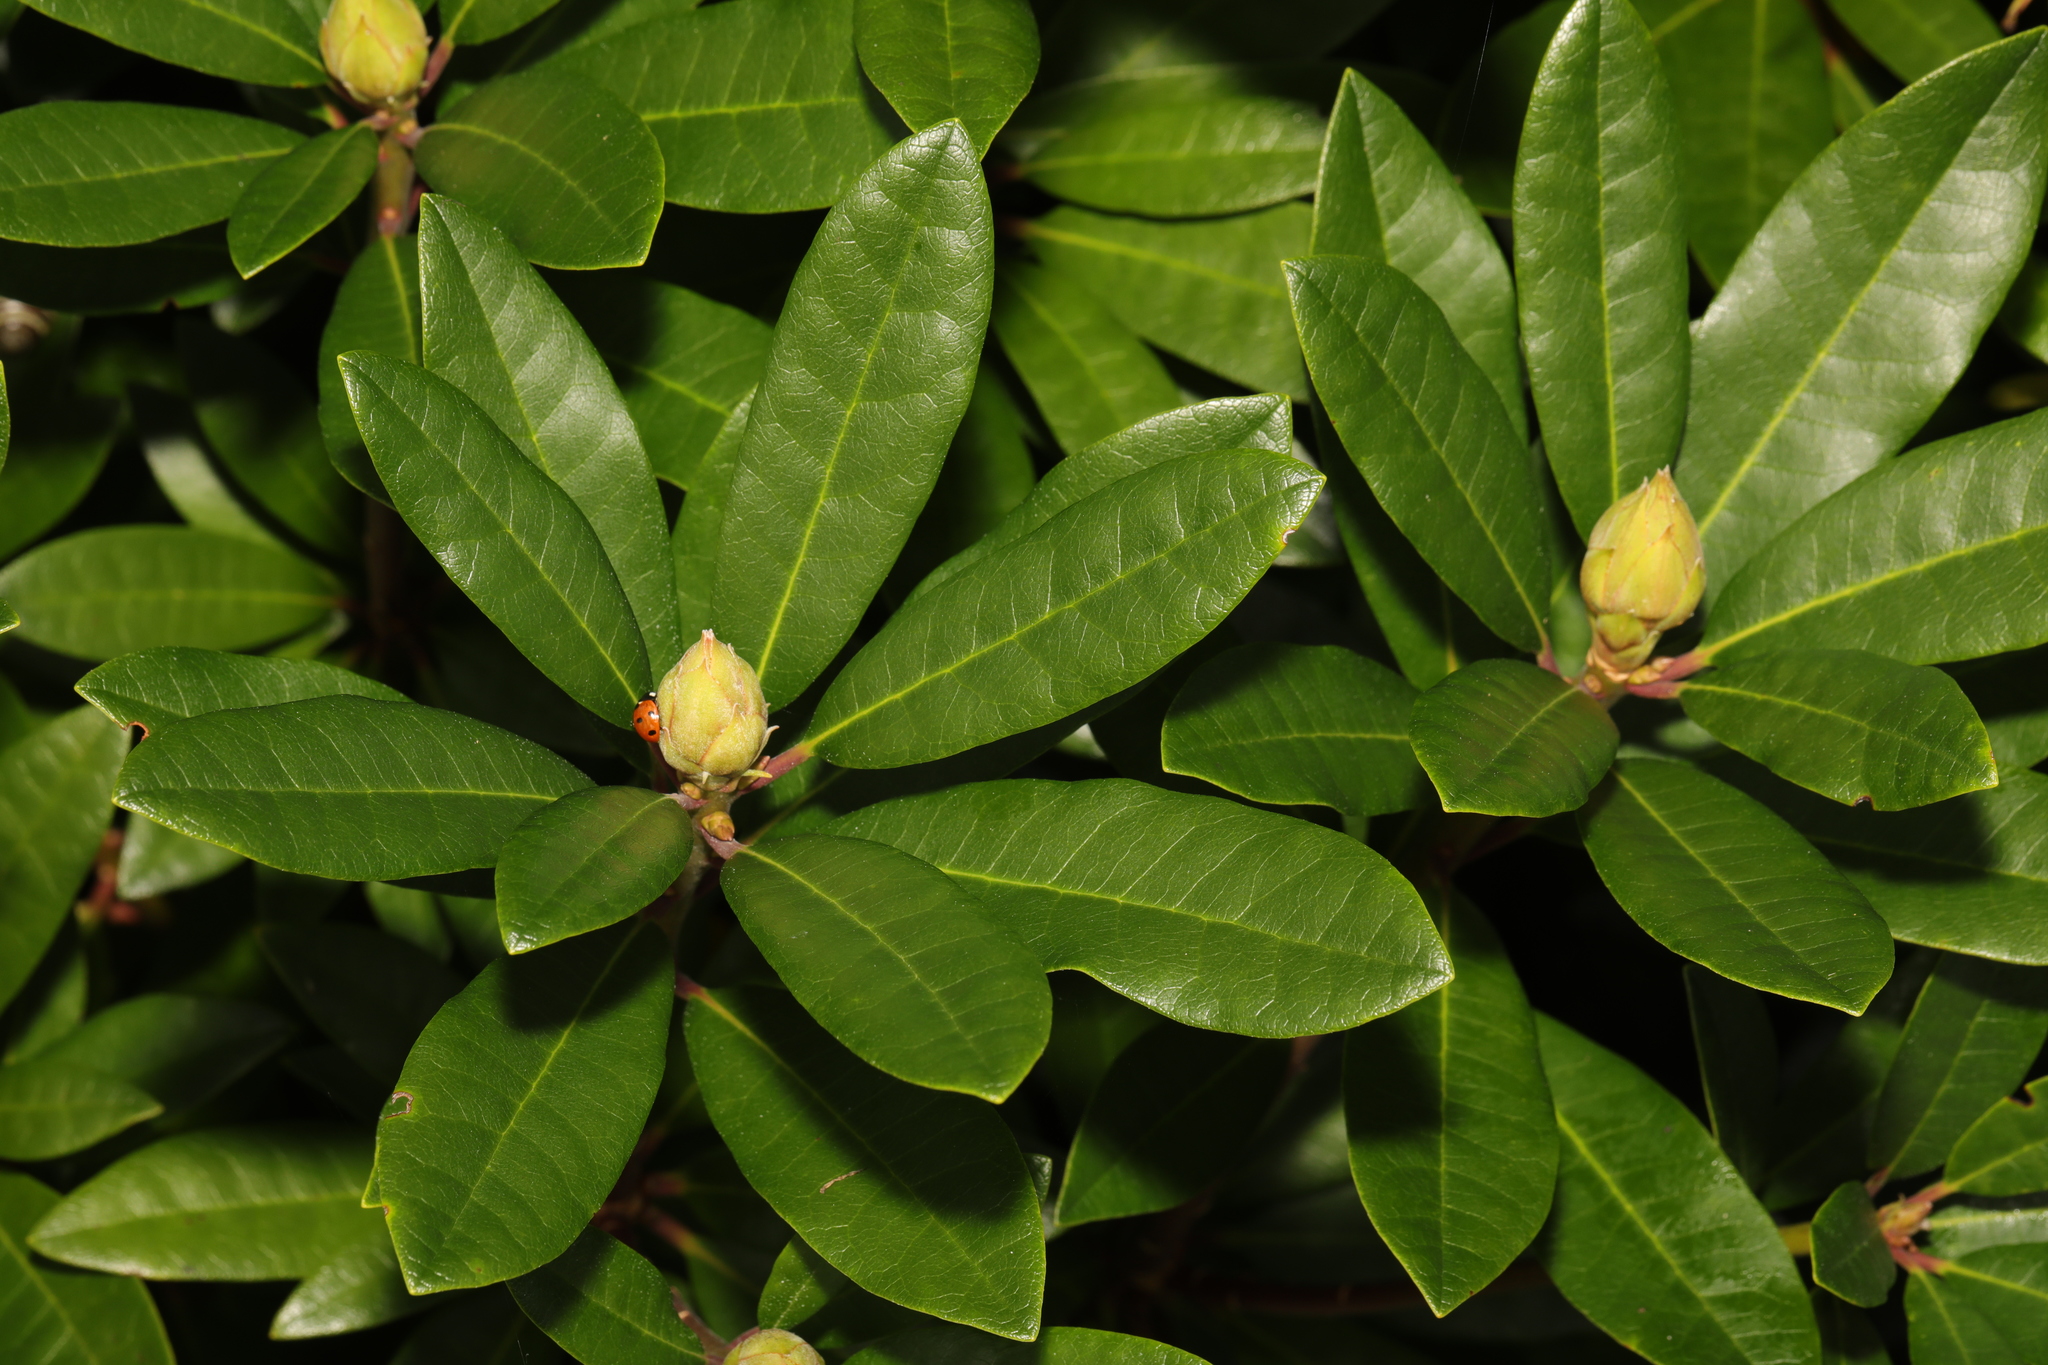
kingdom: Plantae
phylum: Tracheophyta
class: Magnoliopsida
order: Ericales
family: Ericaceae
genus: Rhododendron
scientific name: Rhododendron ponticum
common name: Rhododendron
